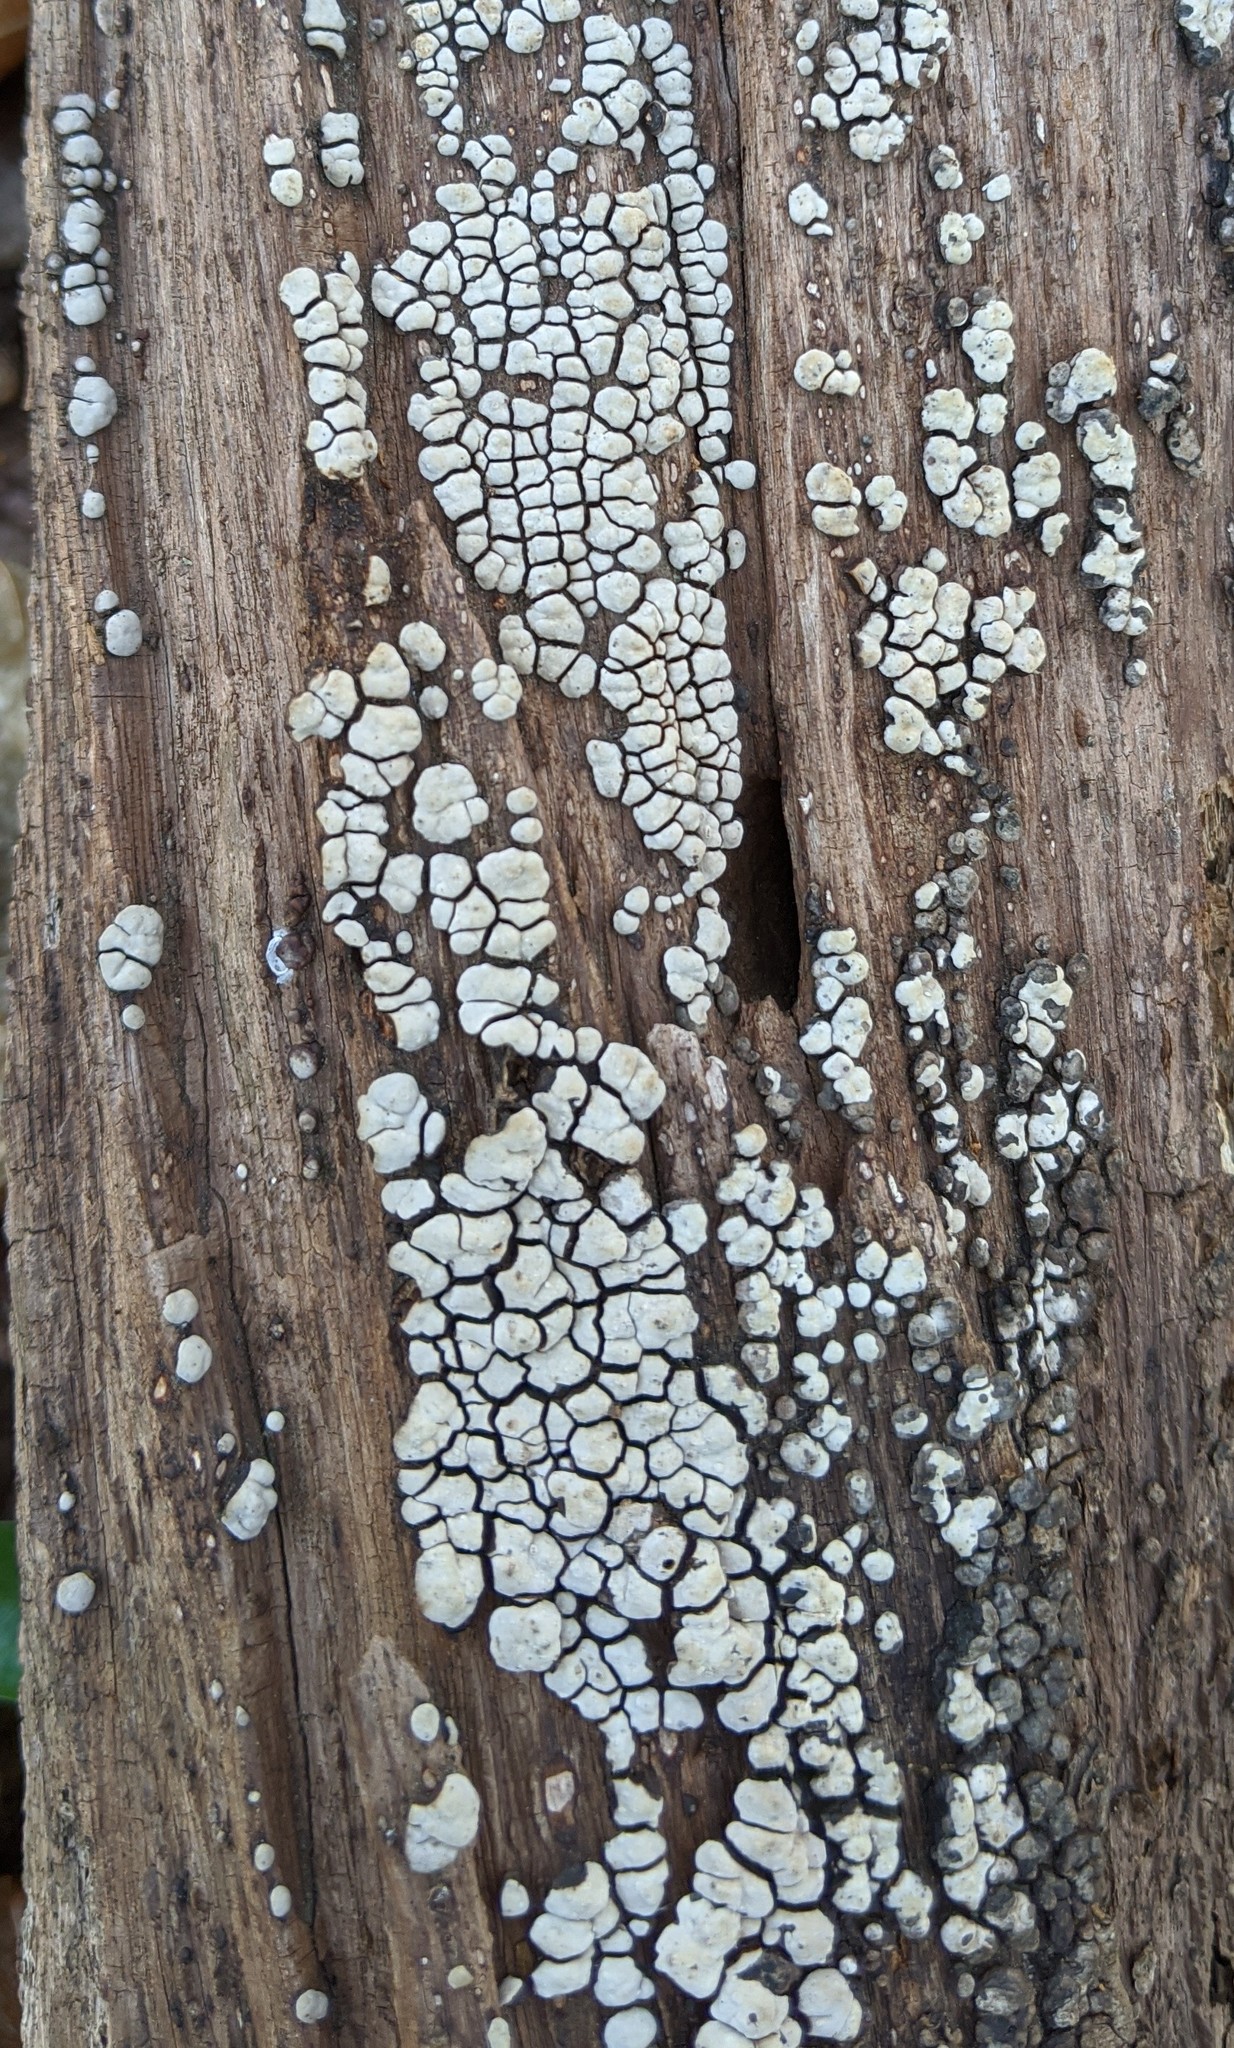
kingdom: Fungi
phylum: Basidiomycota
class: Agaricomycetes
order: Russulales
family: Stereaceae
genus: Xylobolus
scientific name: Xylobolus frustulatus
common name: Ceramic parchment
